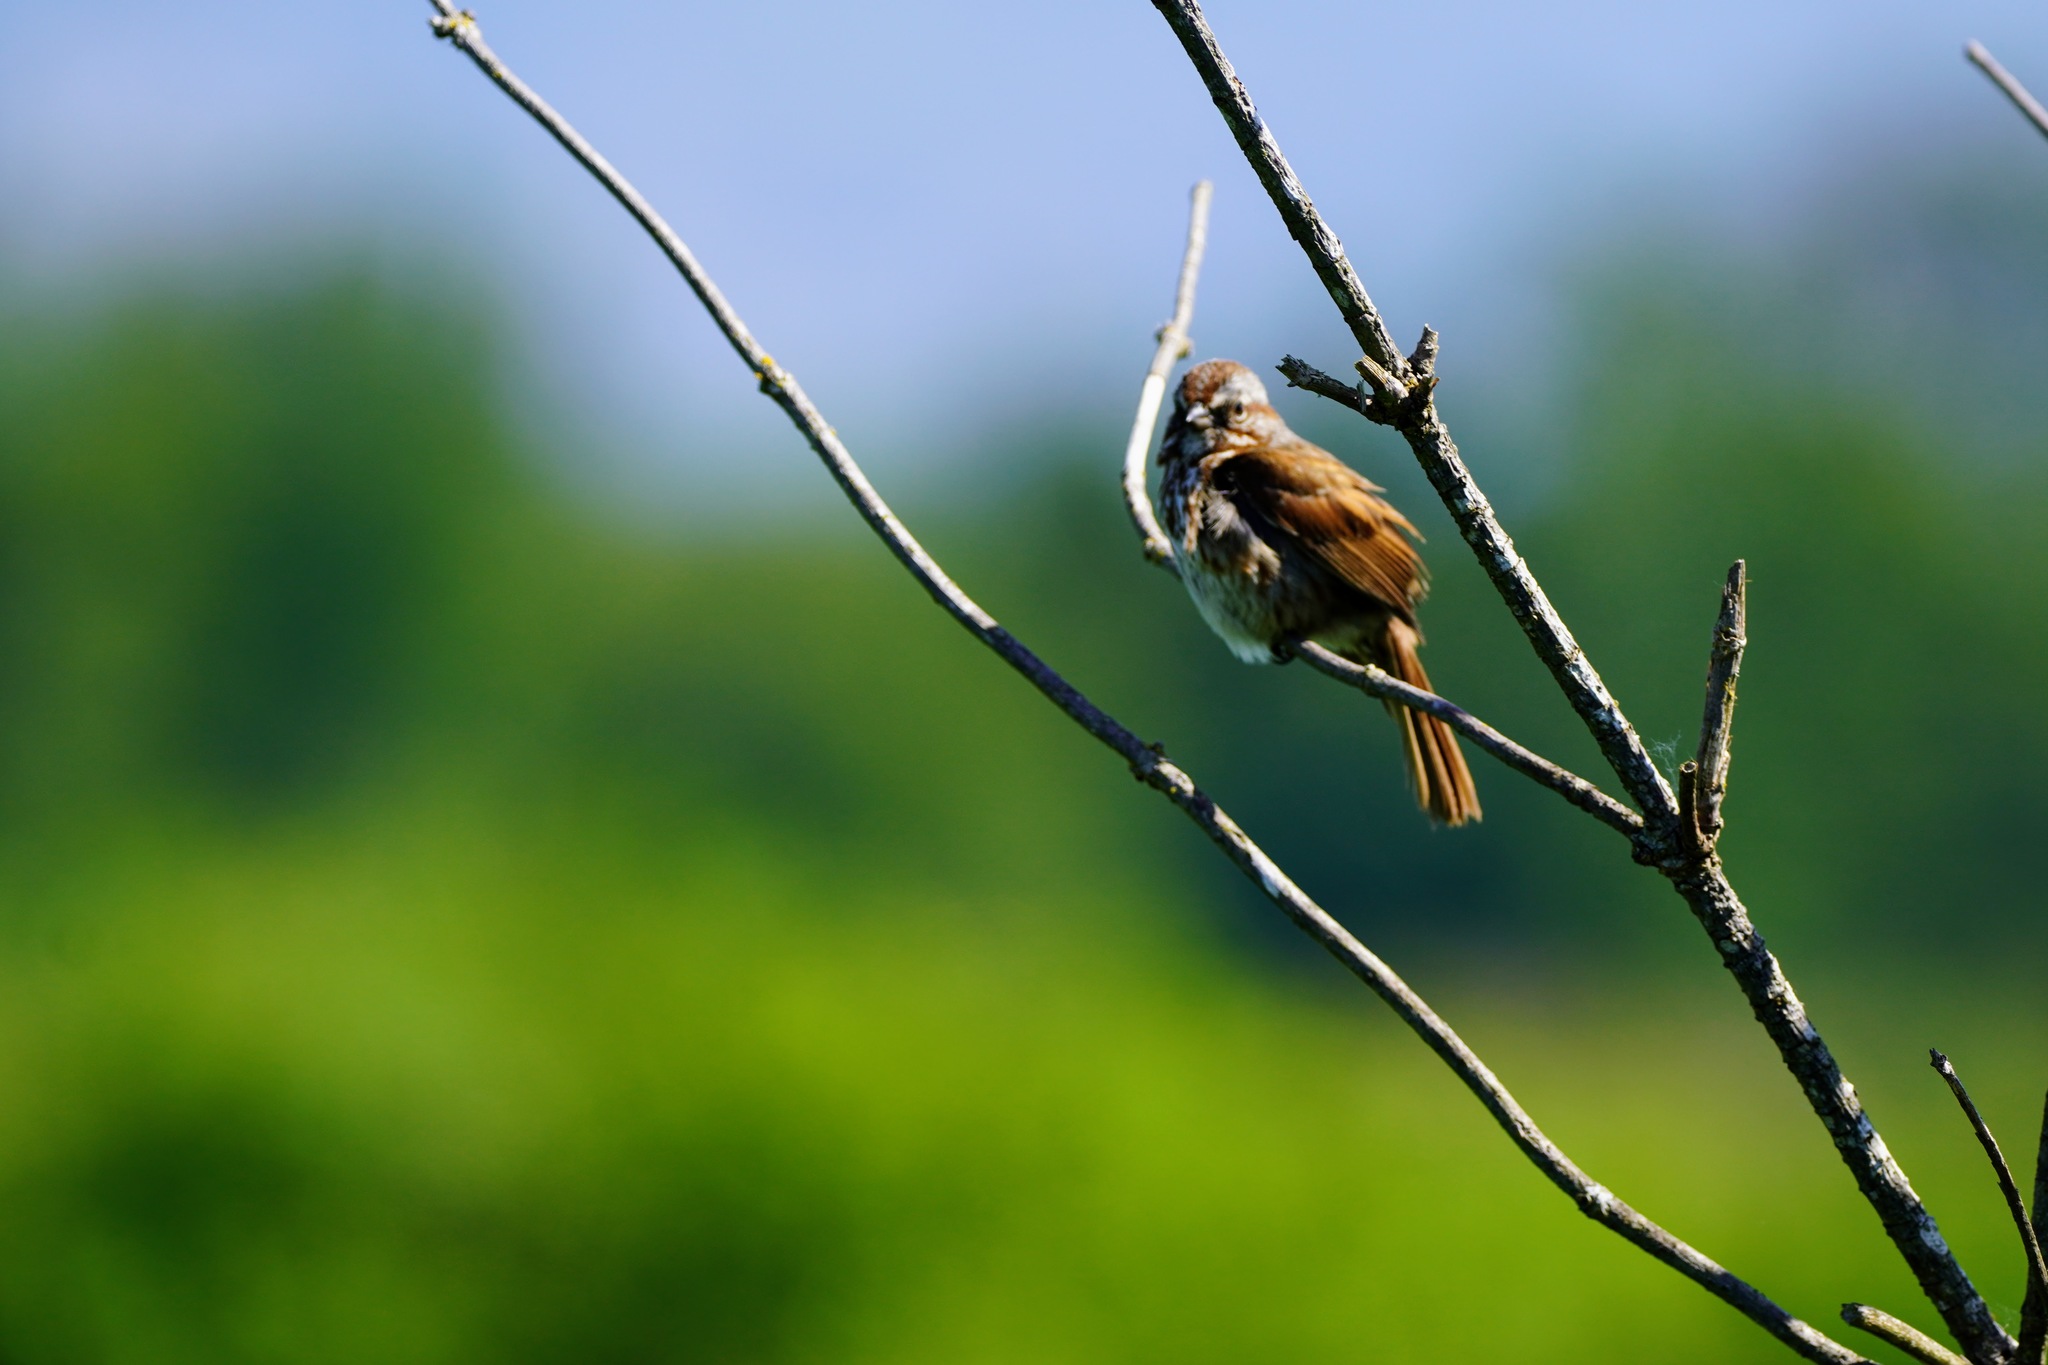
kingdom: Animalia
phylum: Chordata
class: Aves
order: Passeriformes
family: Passerellidae
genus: Melospiza
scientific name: Melospiza melodia
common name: Song sparrow
